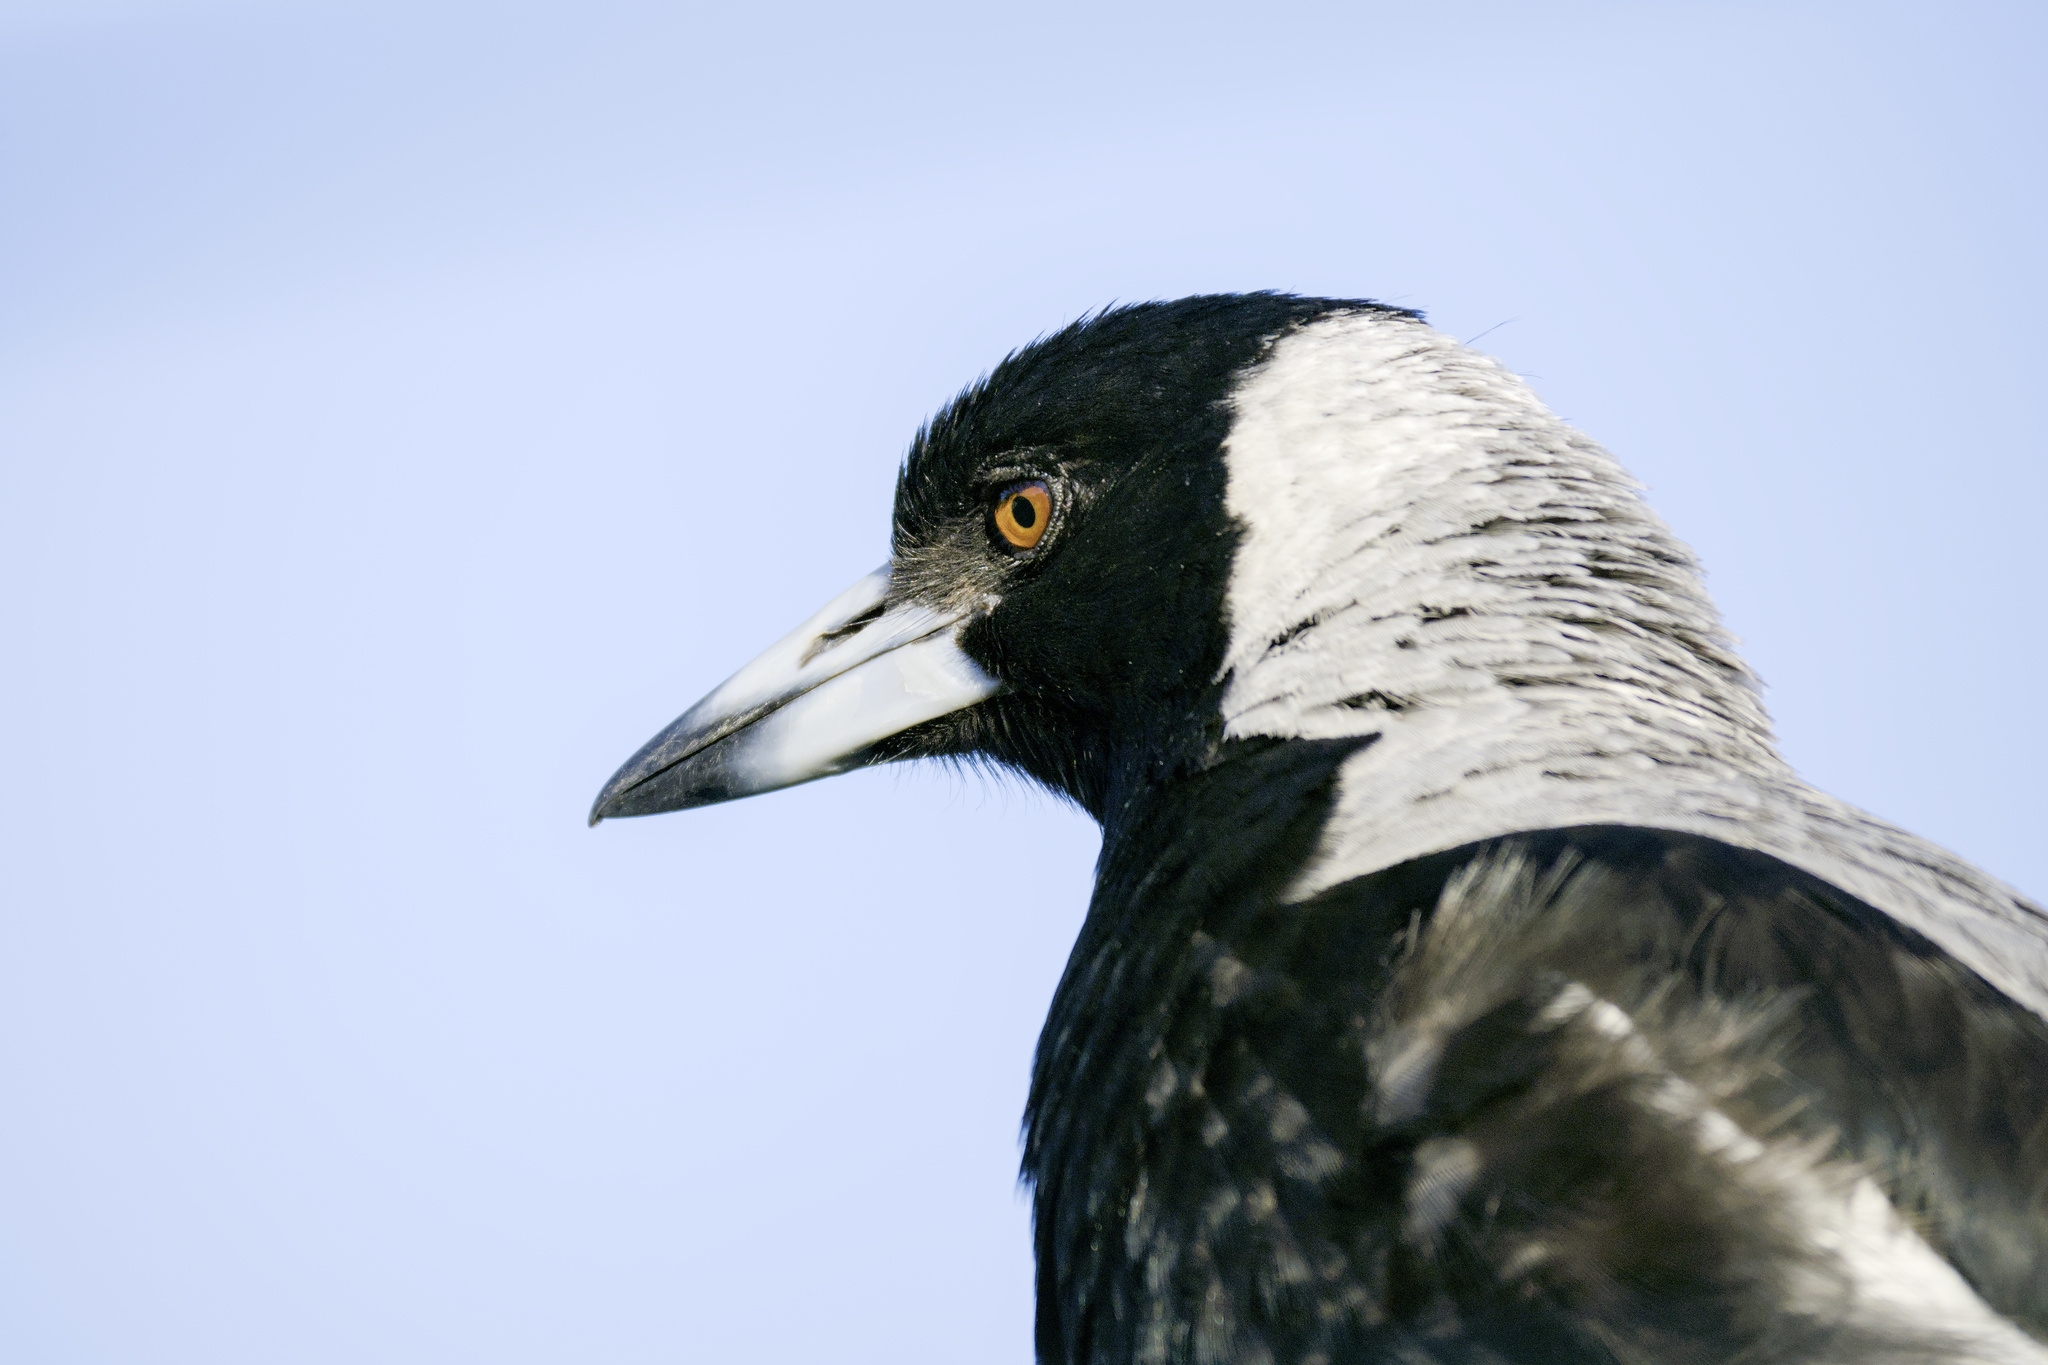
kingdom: Animalia
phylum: Chordata
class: Aves
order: Passeriformes
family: Cracticidae
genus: Gymnorhina
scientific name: Gymnorhina tibicen
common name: Australian magpie
